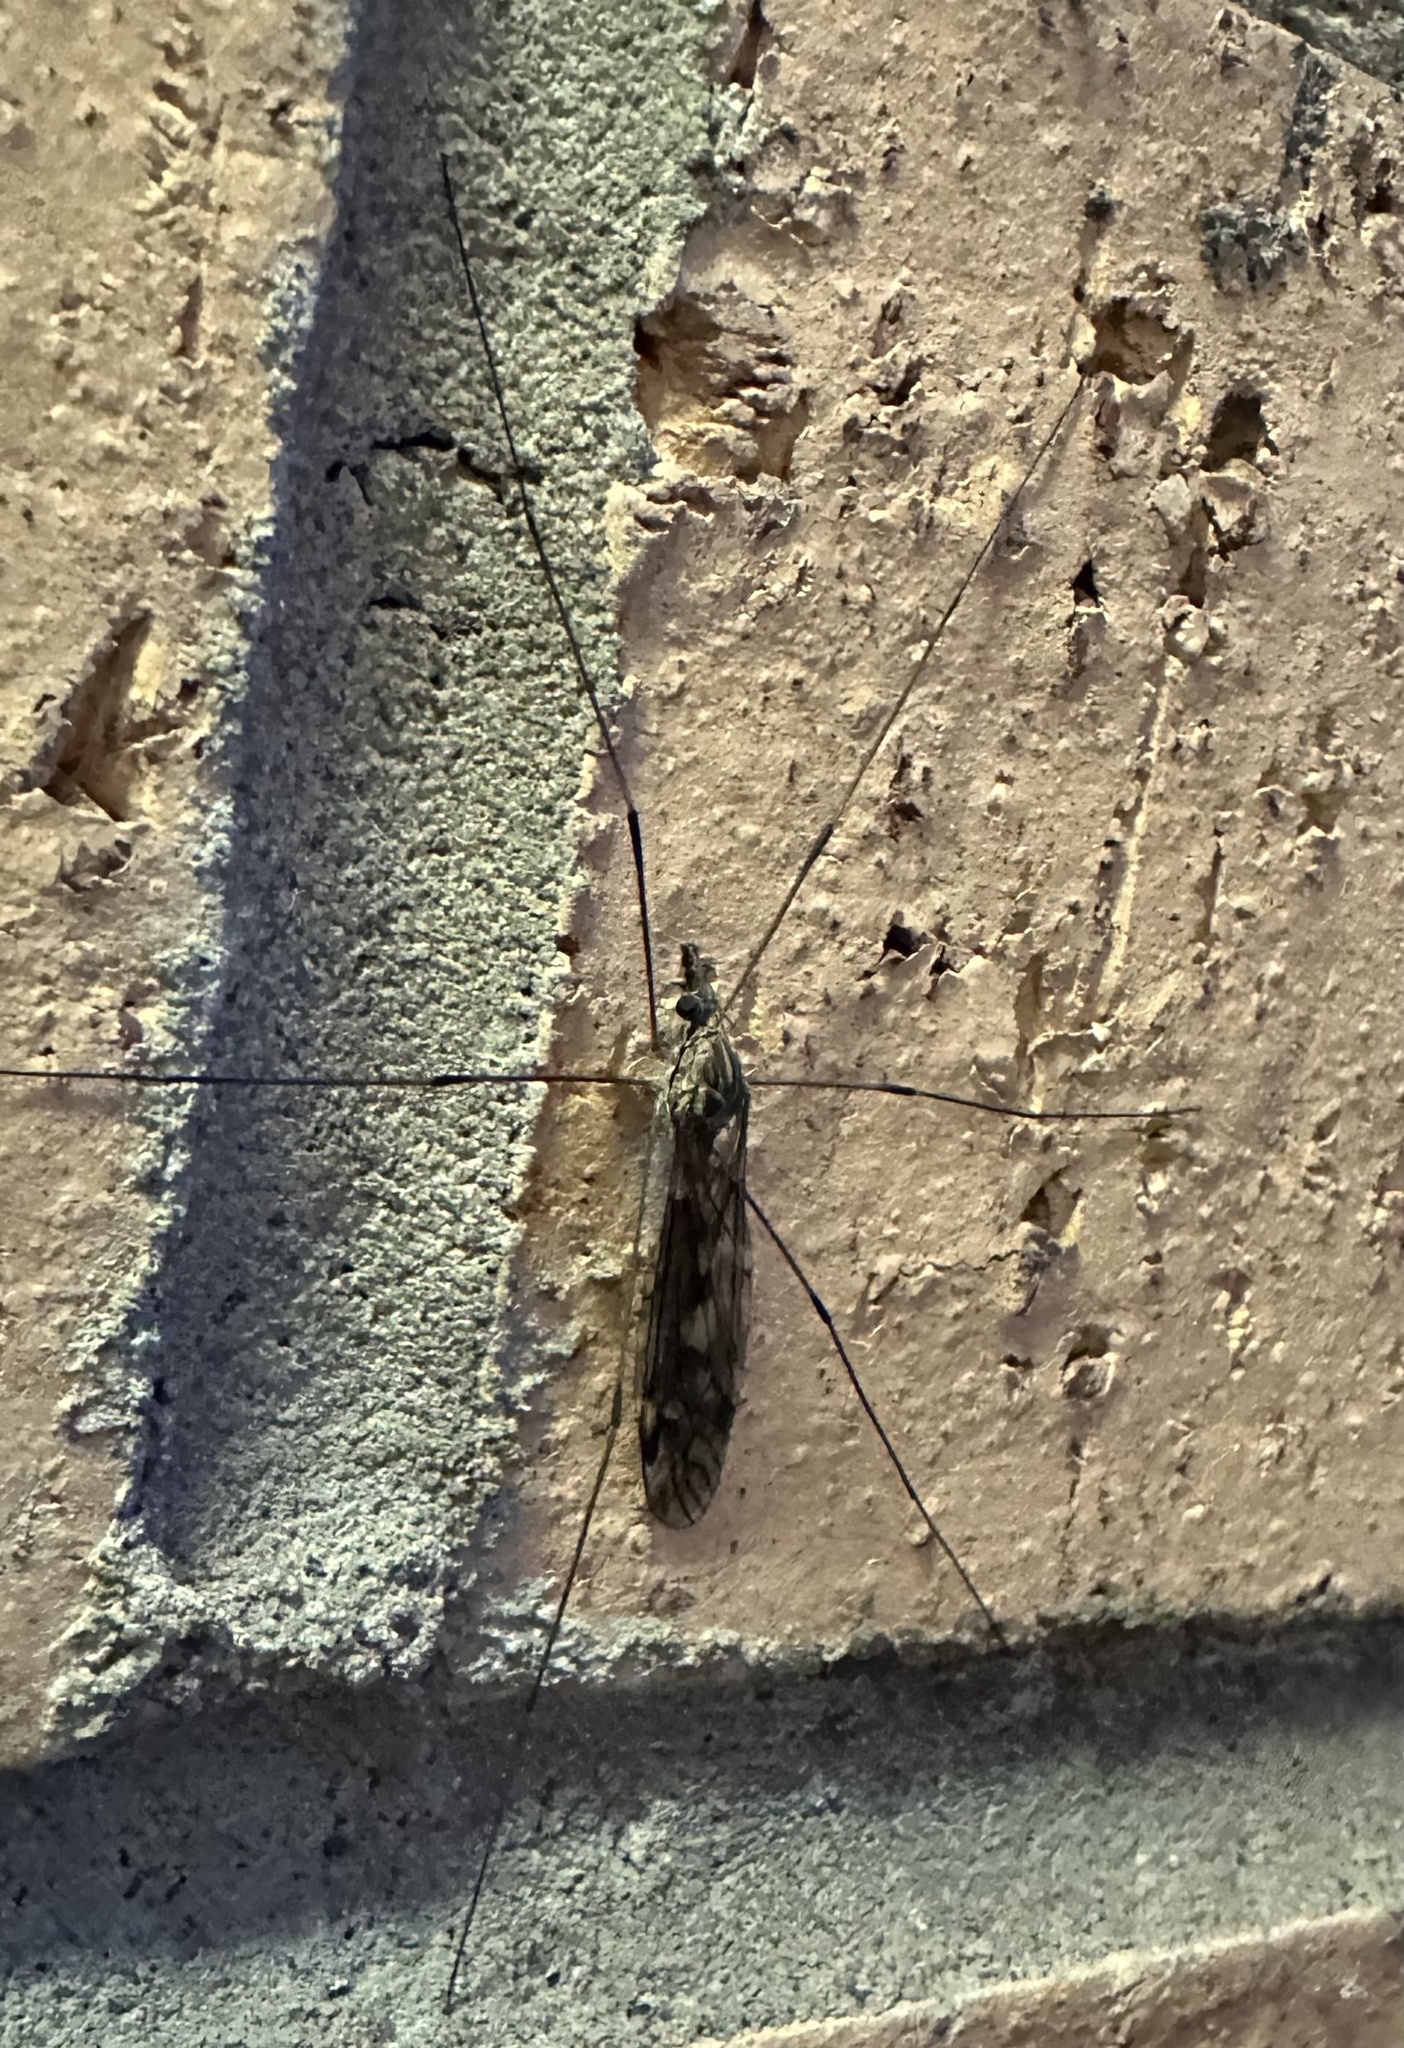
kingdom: Animalia
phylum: Arthropoda
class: Insecta
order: Diptera
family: Tipulidae
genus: Tipula
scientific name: Tipula rufina
